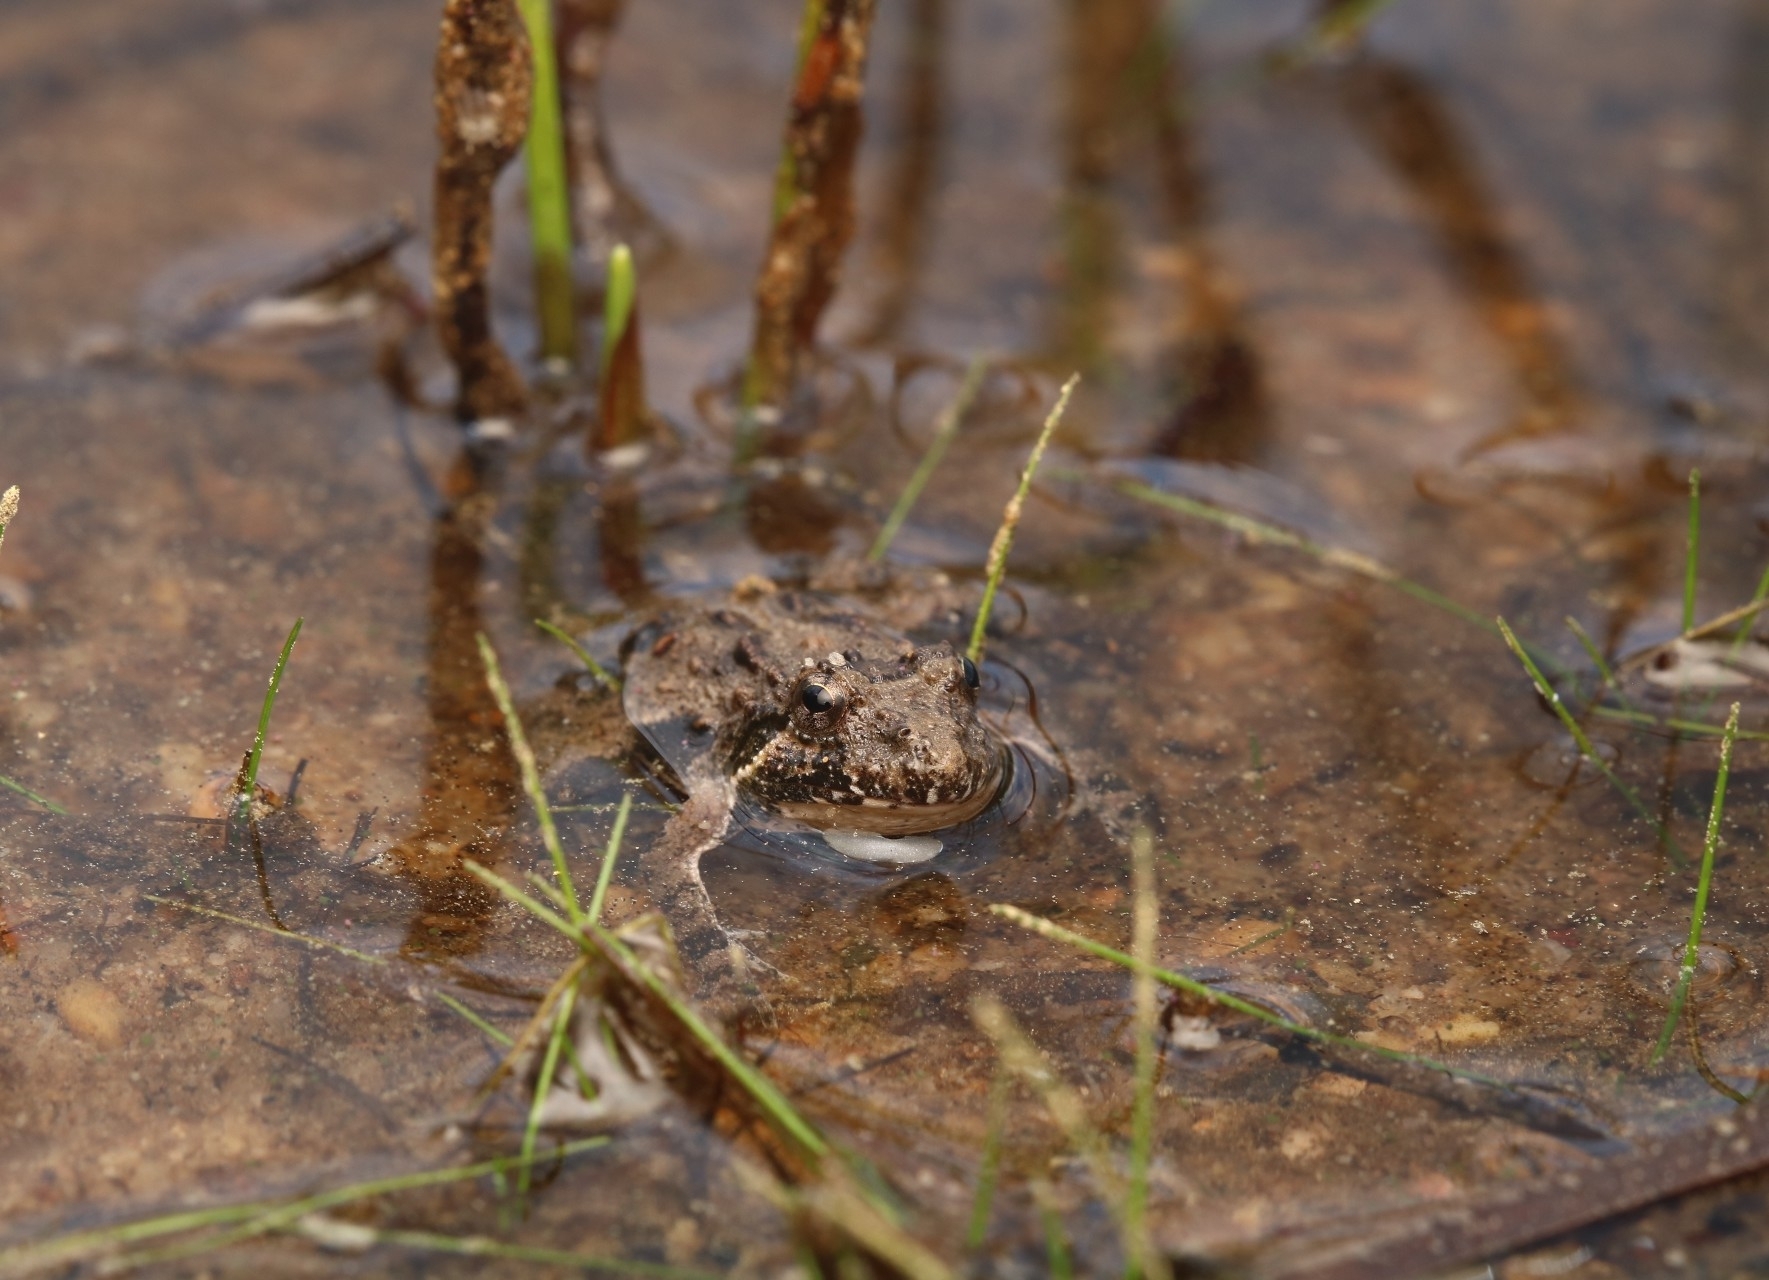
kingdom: Animalia
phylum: Chordata
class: Amphibia
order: Anura
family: Hylidae
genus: Acris
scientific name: Acris crepitans
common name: Northern cricket frog
